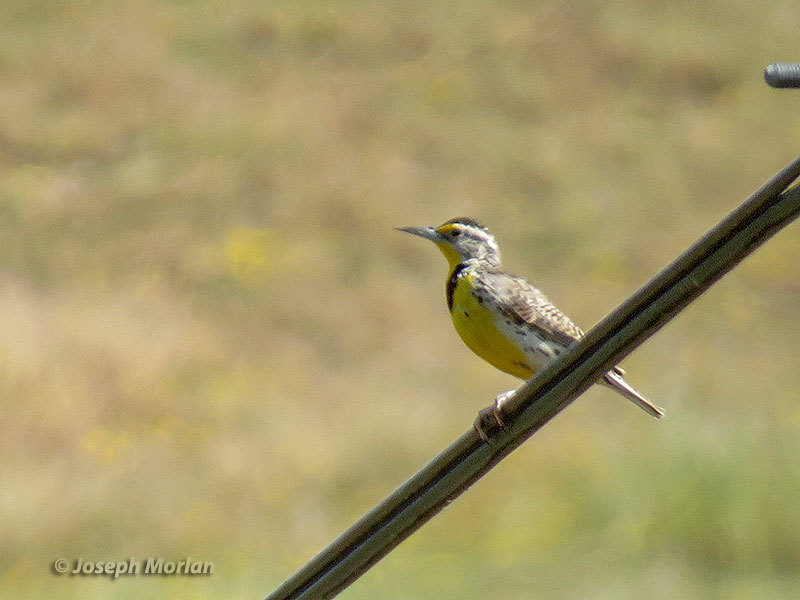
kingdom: Animalia
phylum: Chordata
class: Aves
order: Passeriformes
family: Icteridae
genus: Sturnella
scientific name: Sturnella neglecta
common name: Western meadowlark
